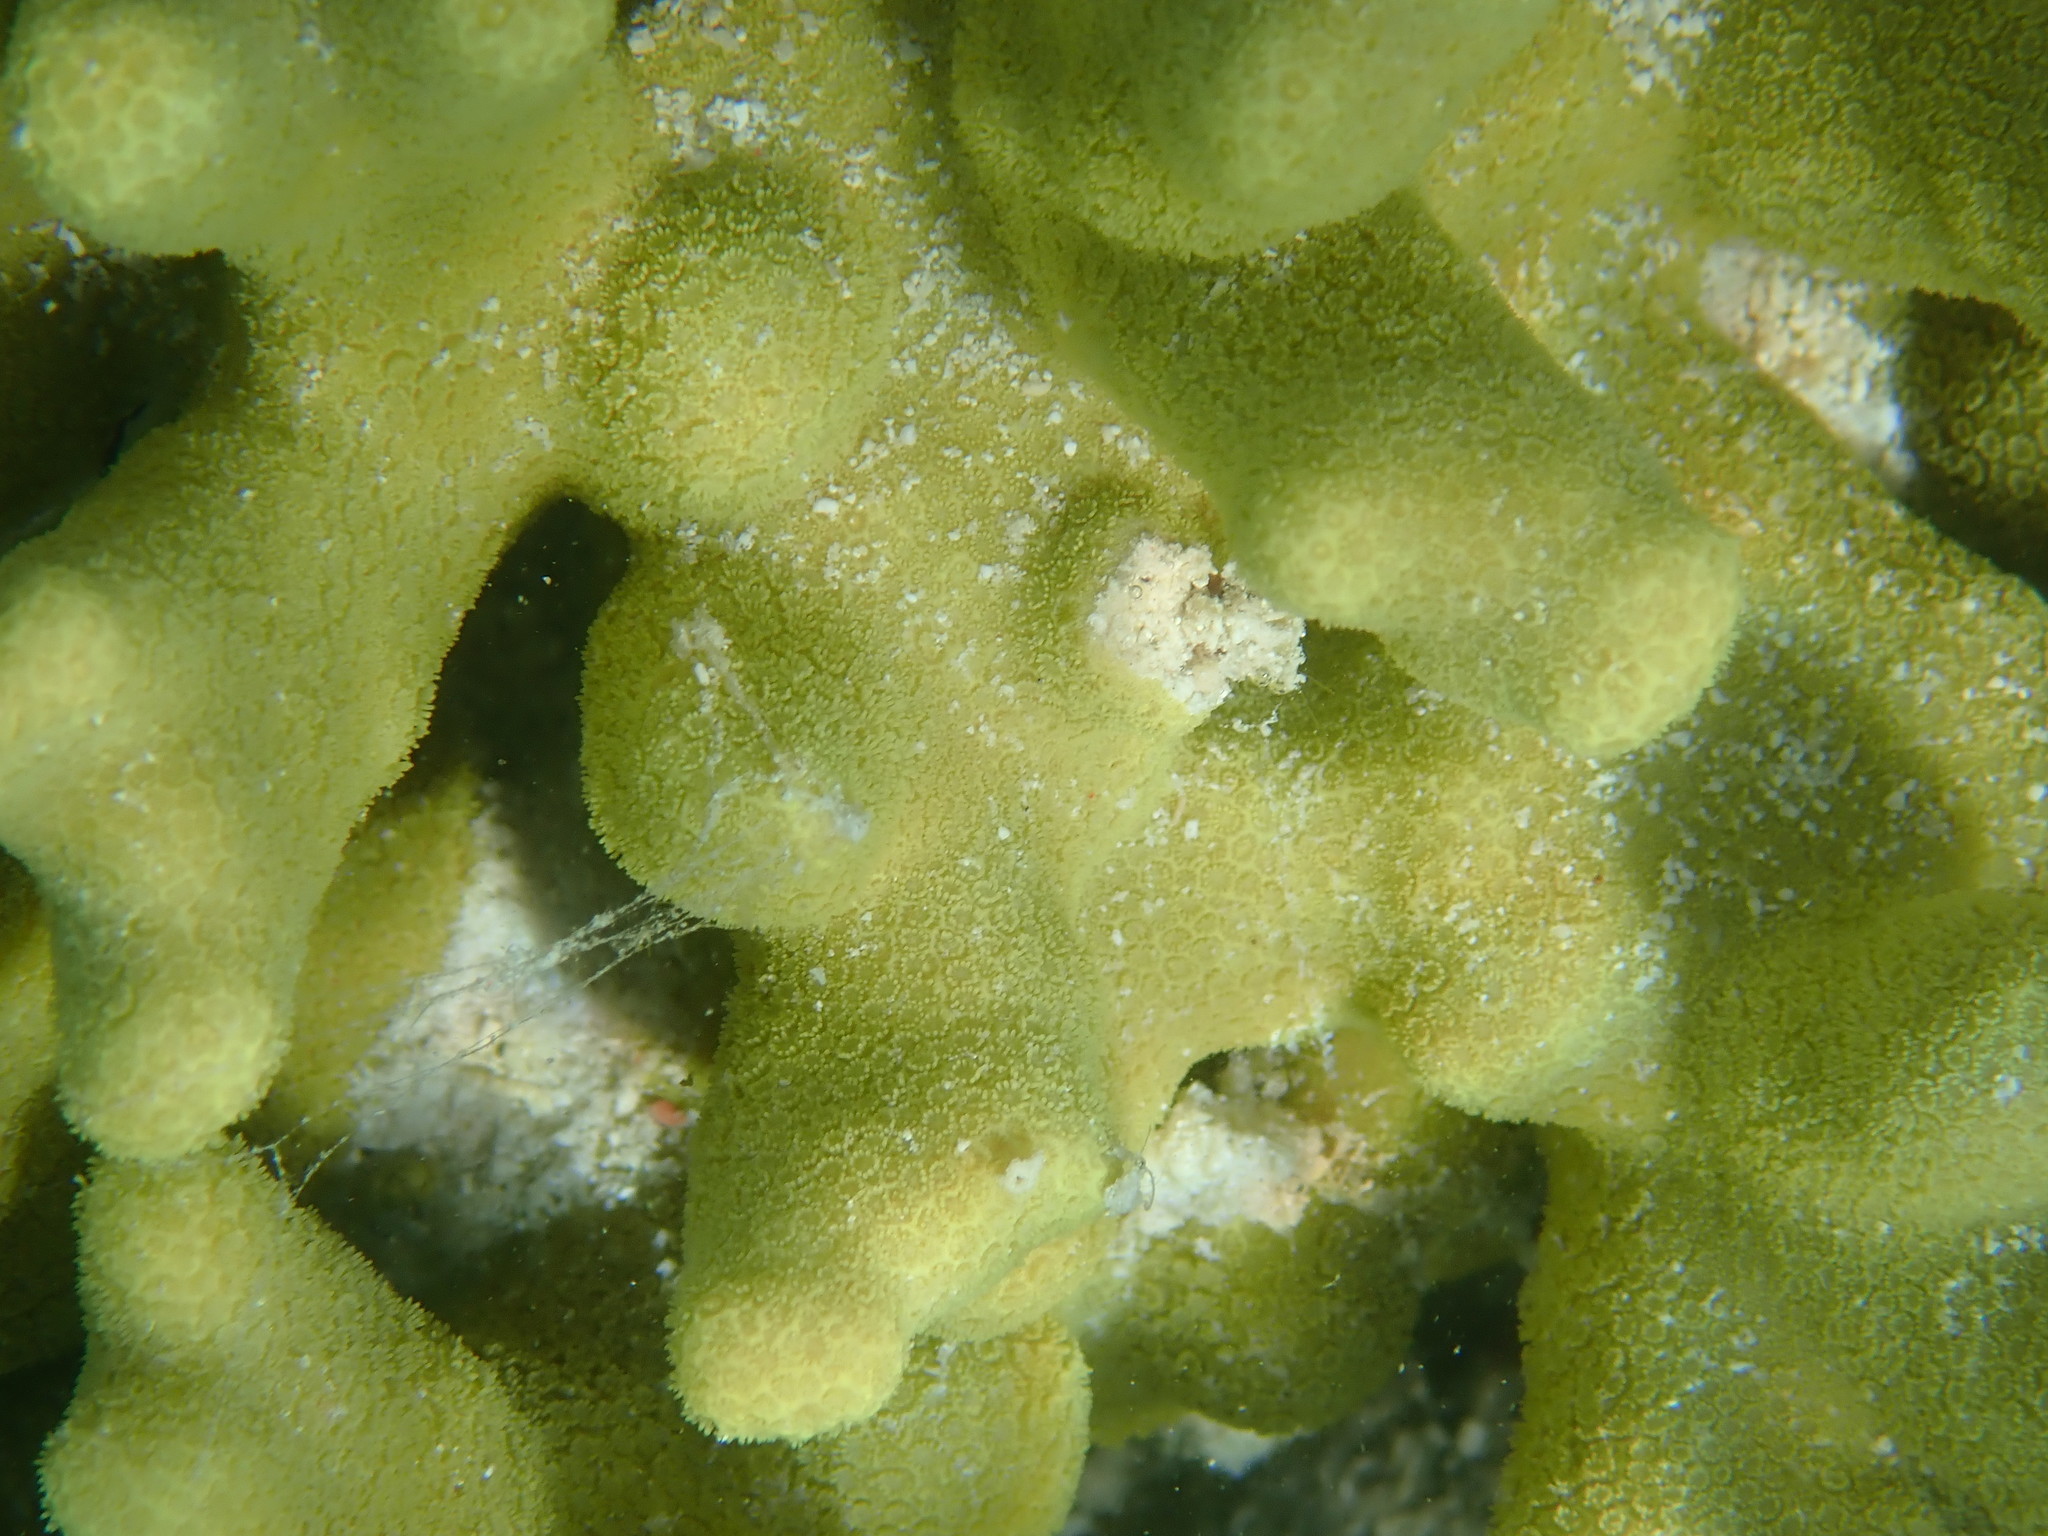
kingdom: Animalia
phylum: Cnidaria
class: Anthozoa
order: Scleractinia
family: Poritidae
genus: Porites
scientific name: Porites attenuata
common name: Hump coral
